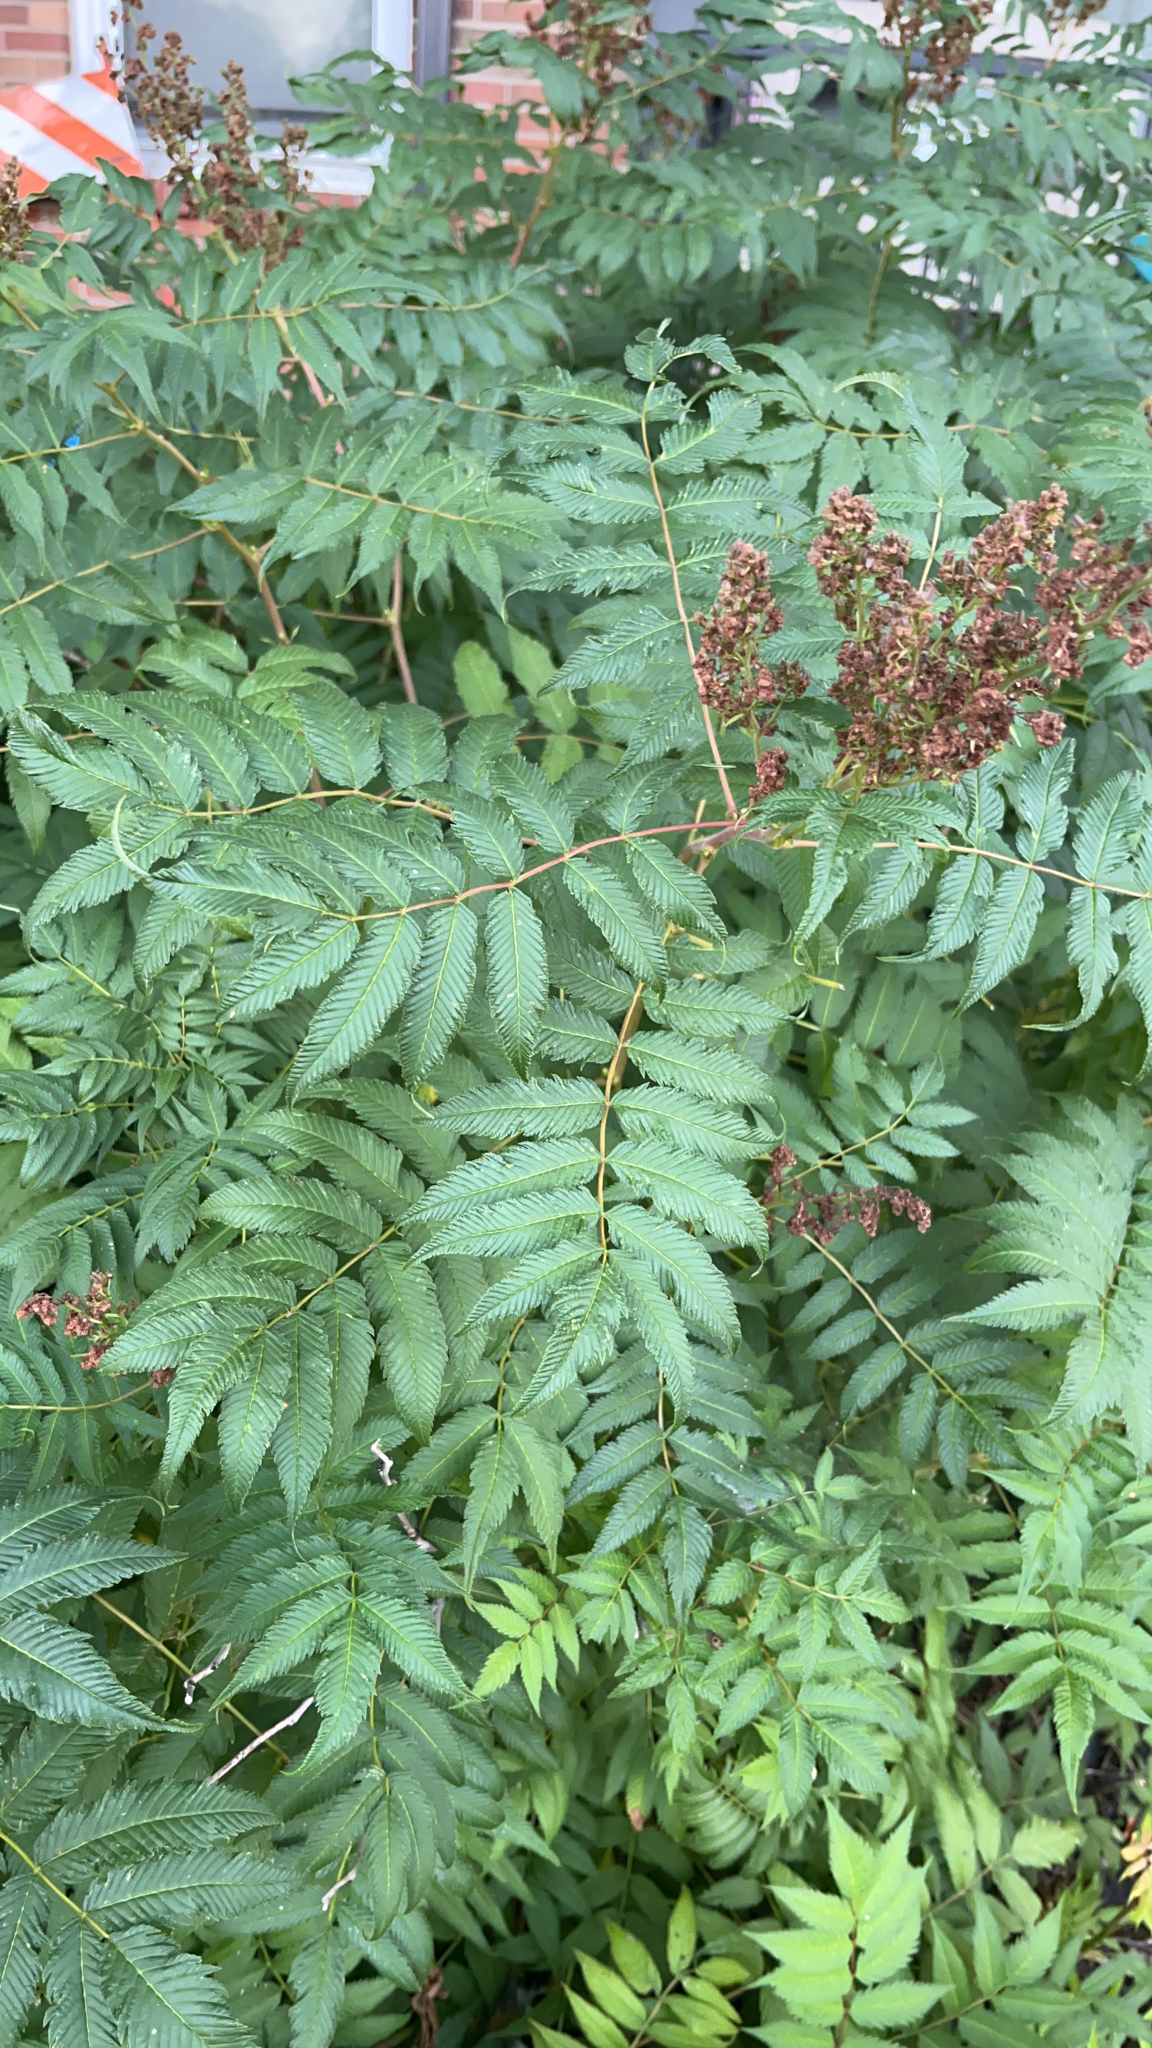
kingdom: Plantae
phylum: Tracheophyta
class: Magnoliopsida
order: Rosales
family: Rosaceae
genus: Sorbaria
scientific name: Sorbaria sorbifolia
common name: False spiraea
